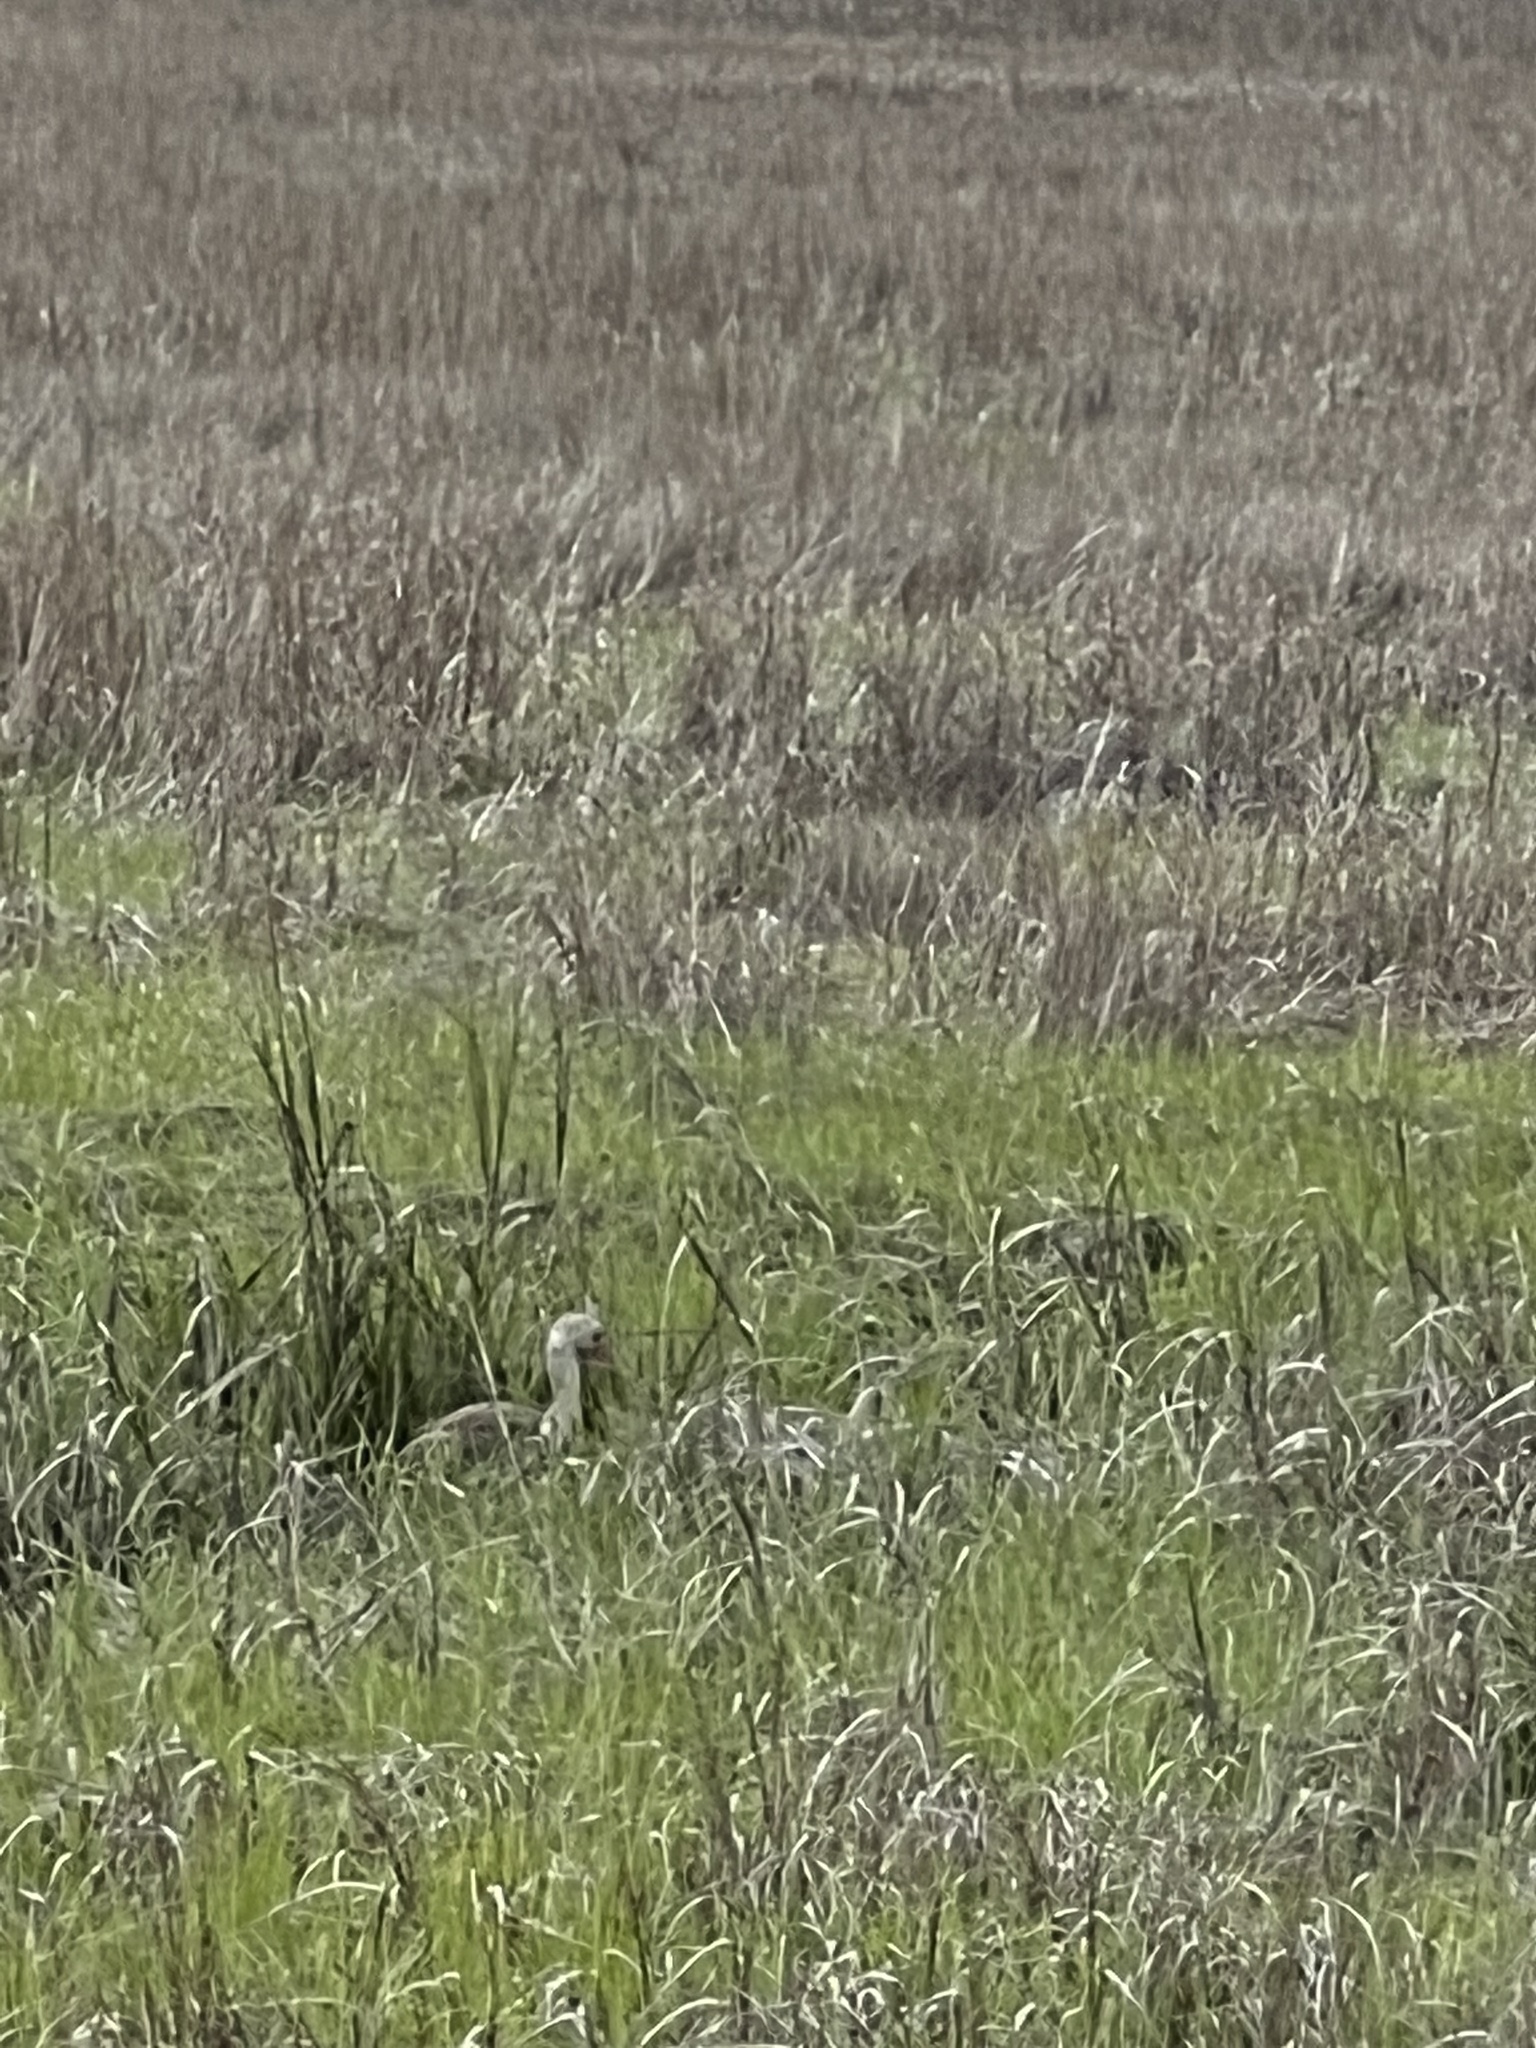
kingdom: Animalia
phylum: Chordata
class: Aves
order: Pelecaniformes
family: Threskiornithidae
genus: Eudocimus
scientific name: Eudocimus albus
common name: White ibis
